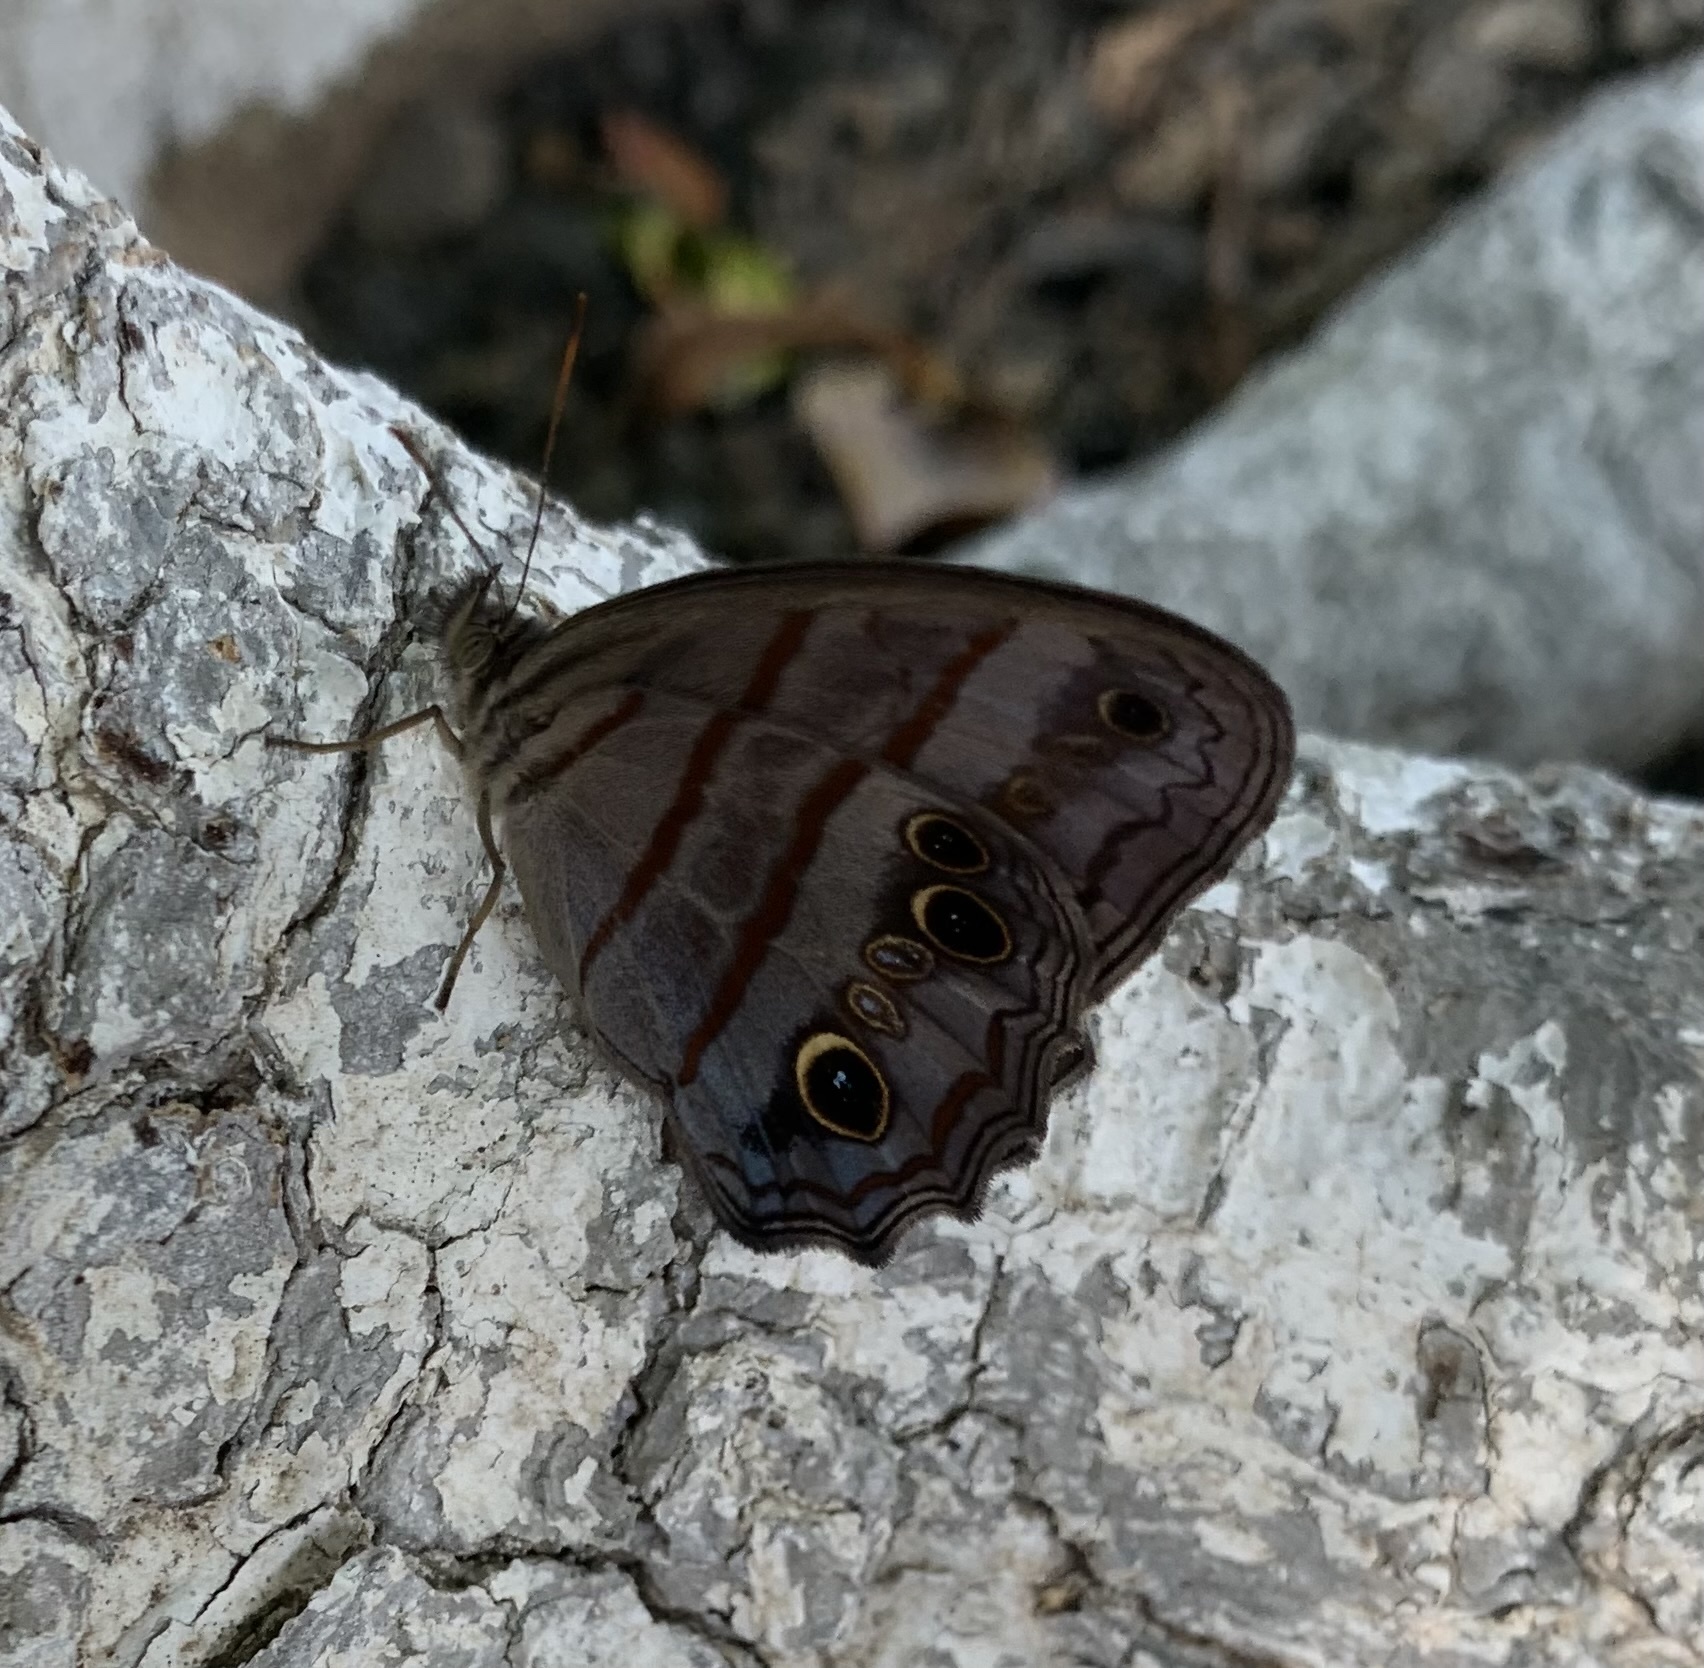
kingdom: Animalia
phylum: Arthropoda
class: Insecta
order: Lepidoptera
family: Nymphalidae
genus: Magneuptychia
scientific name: Magneuptychia libye
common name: Blue-gray satyr
